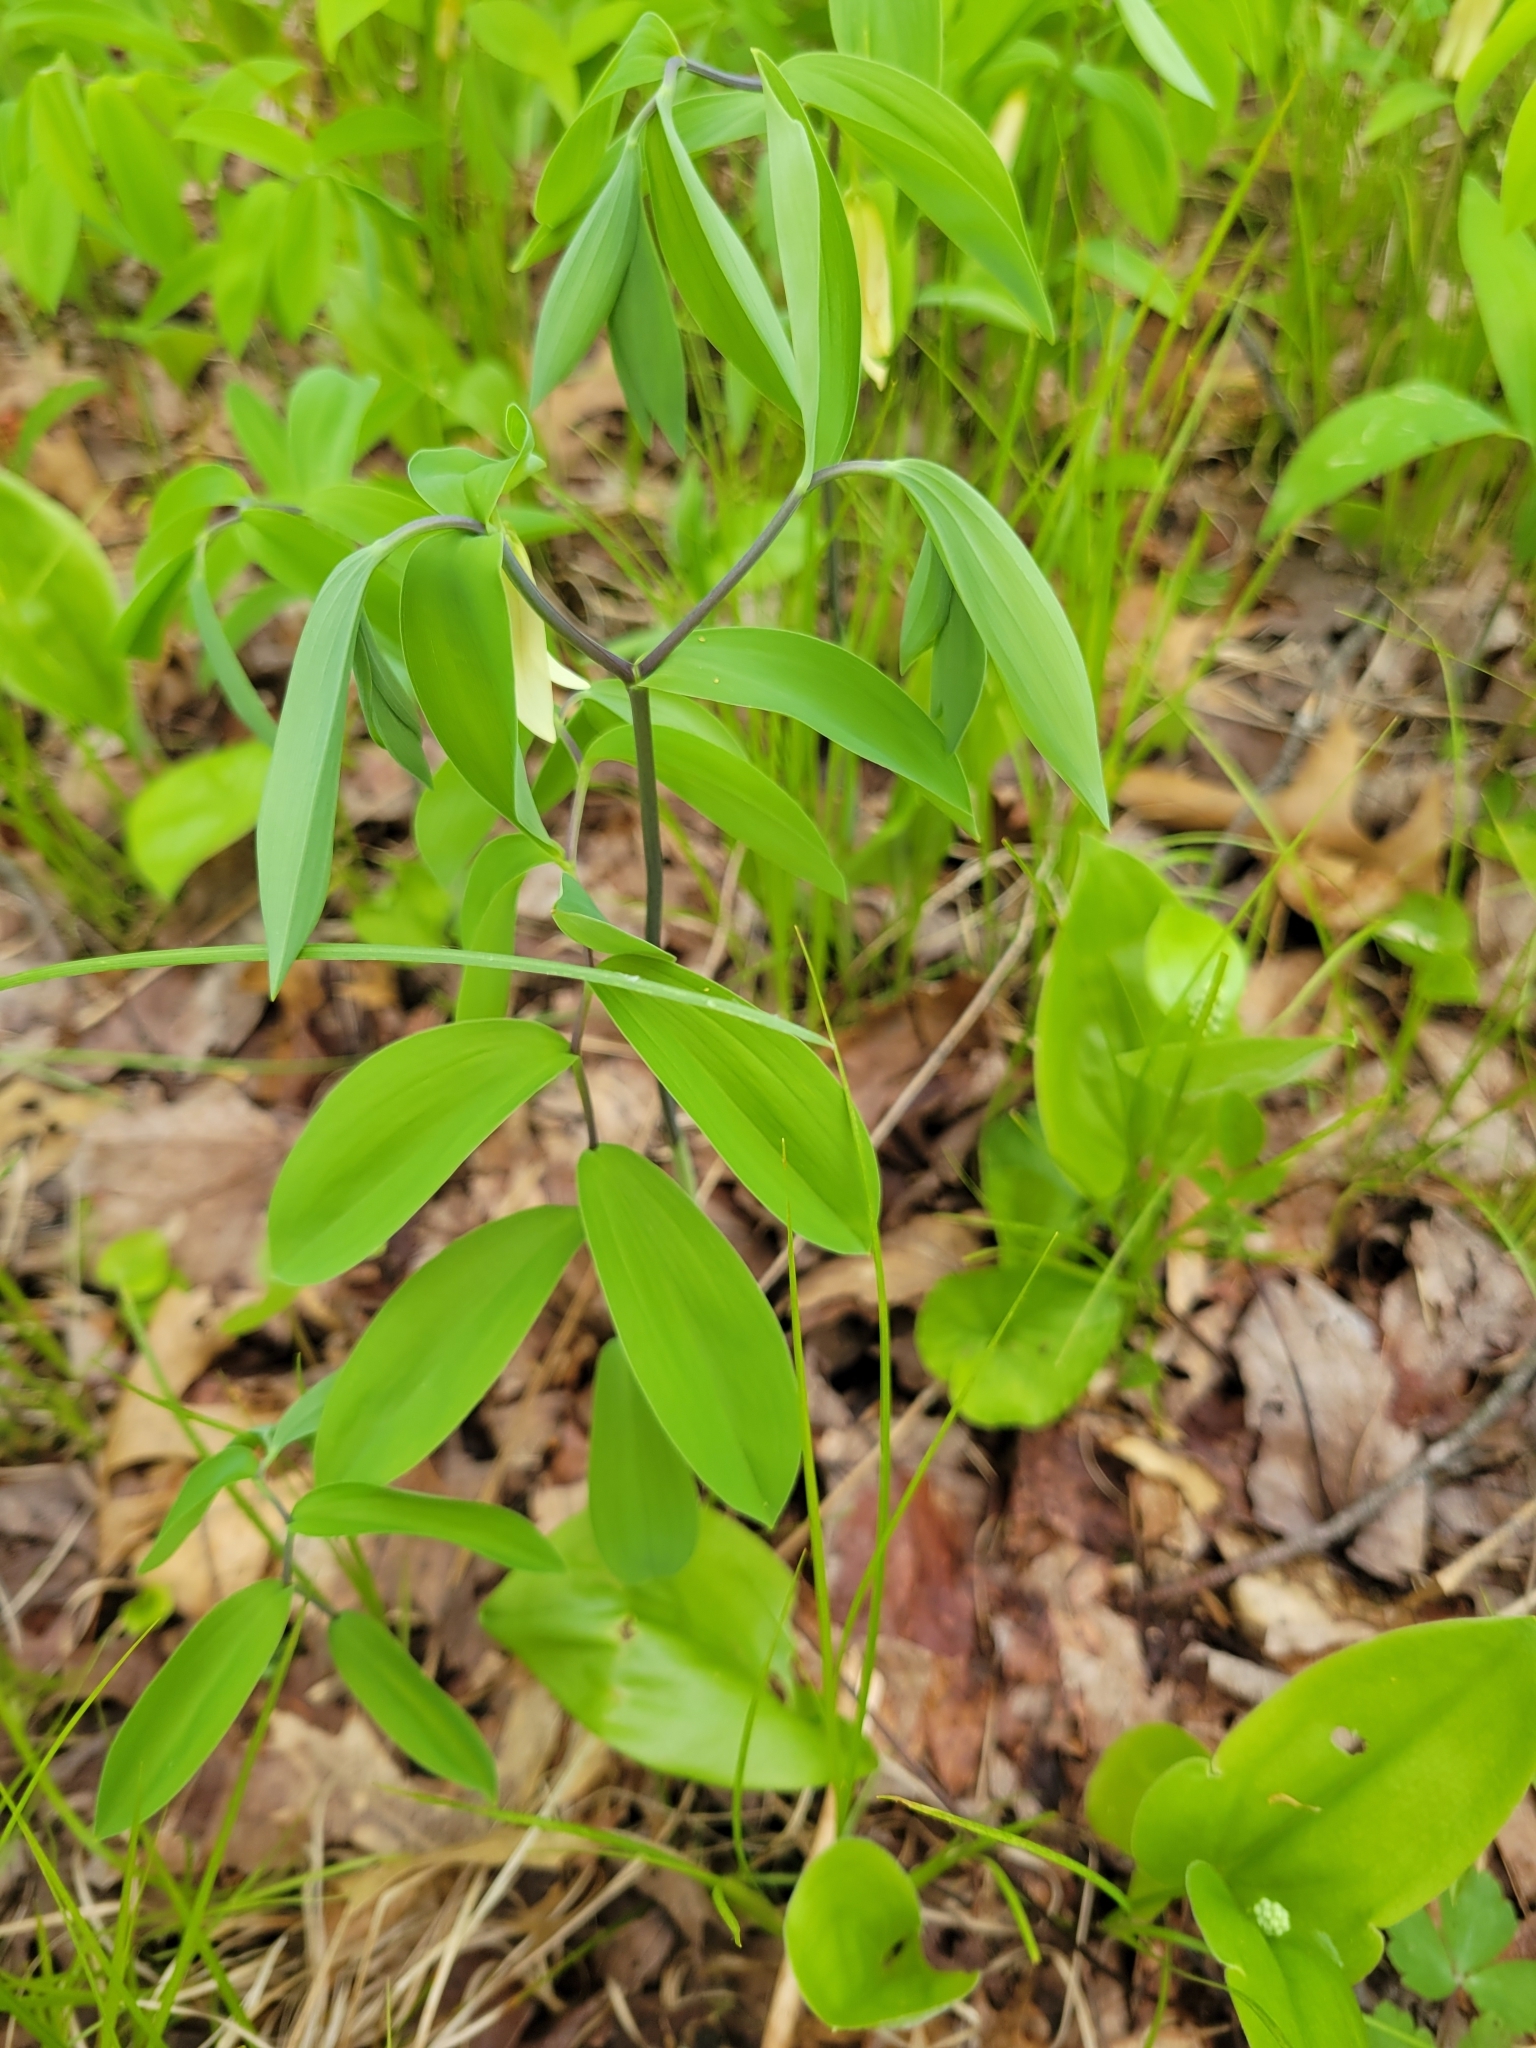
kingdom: Plantae
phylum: Tracheophyta
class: Liliopsida
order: Liliales
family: Colchicaceae
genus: Uvularia
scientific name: Uvularia sessilifolia
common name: Straw-lily
